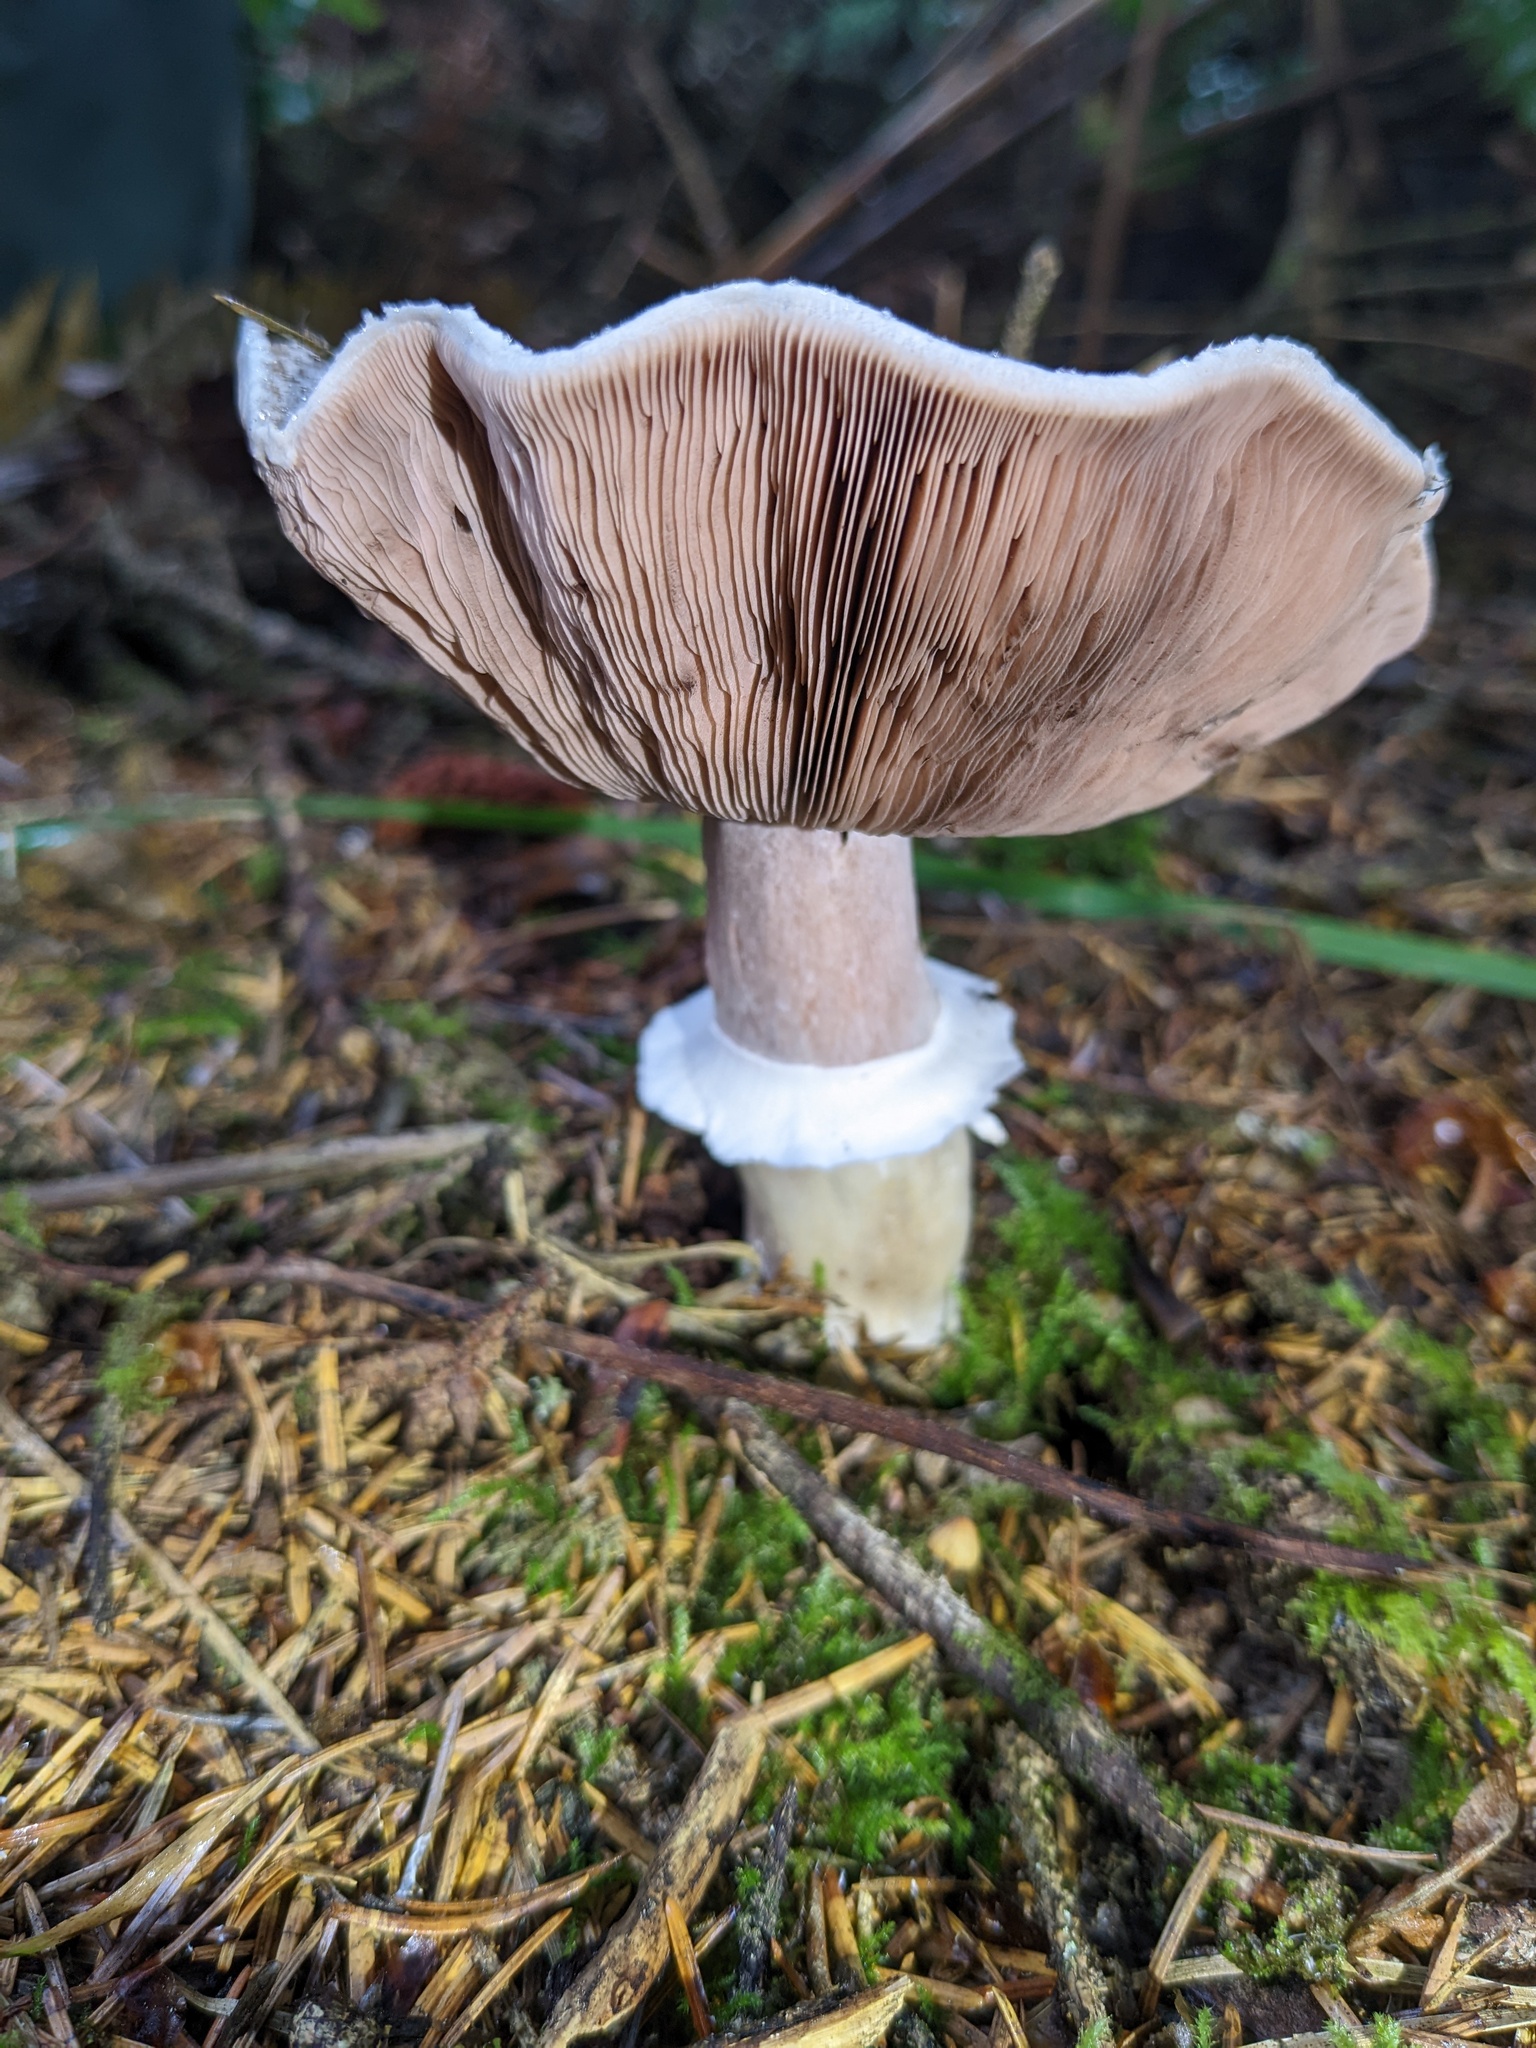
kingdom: Fungi
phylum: Basidiomycota
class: Agaricomycetes
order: Agaricales
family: Agaricaceae
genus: Agaricus
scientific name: Agaricus deardorffensis
